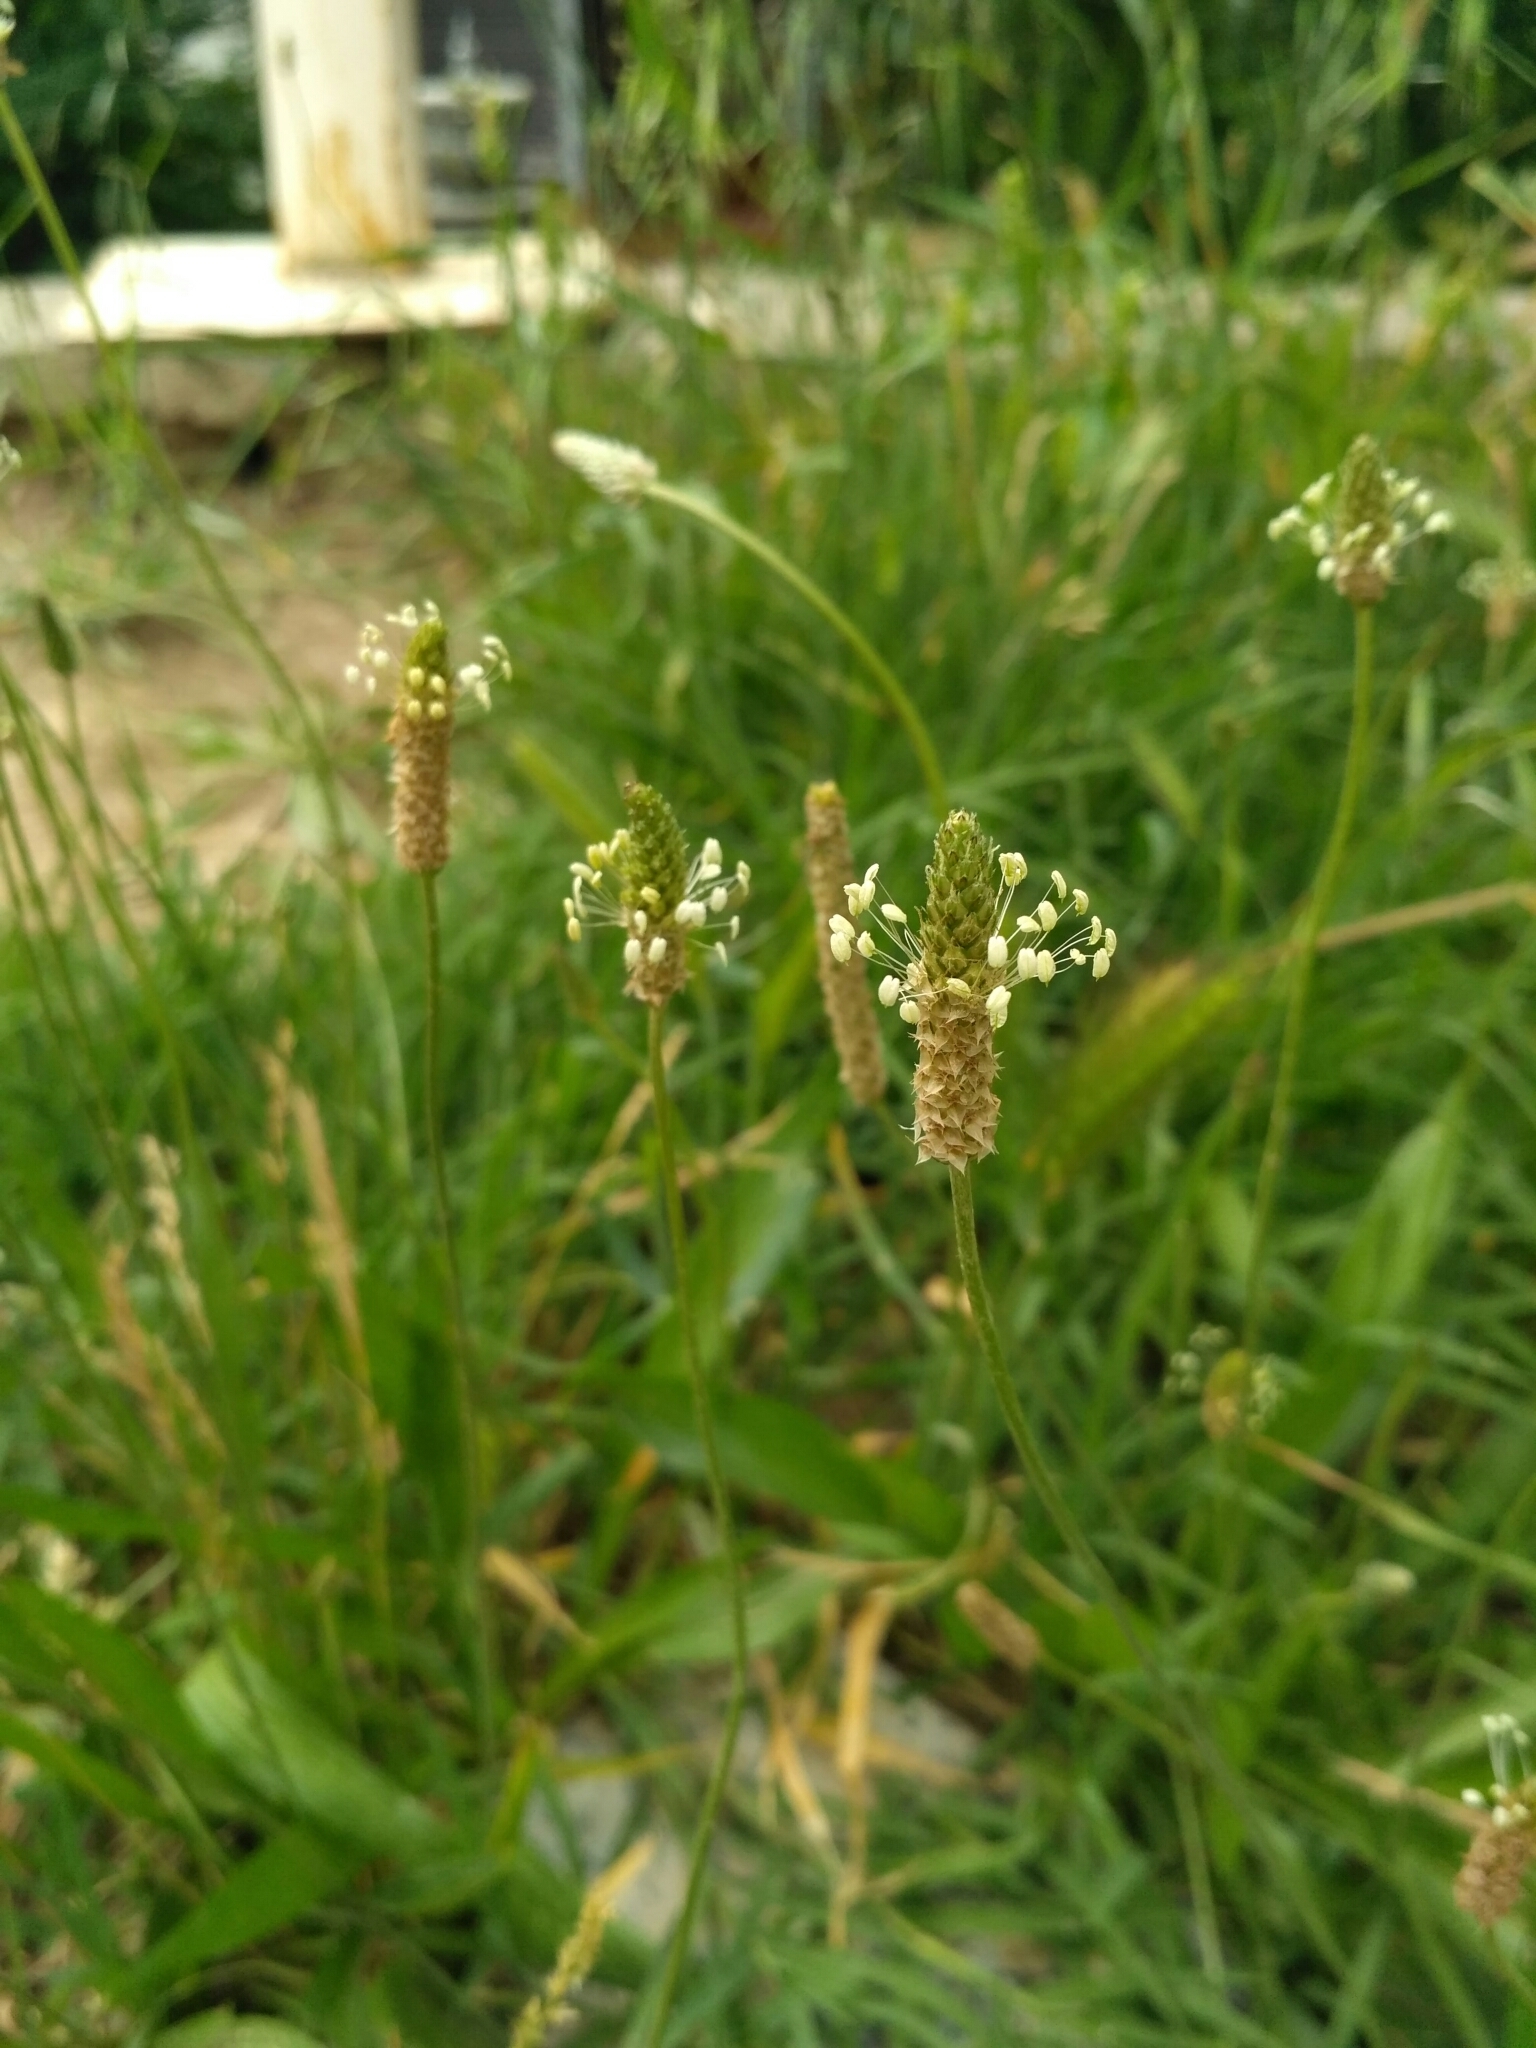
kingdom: Plantae
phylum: Tracheophyta
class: Magnoliopsida
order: Lamiales
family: Plantaginaceae
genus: Plantago
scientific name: Plantago lanceolata
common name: Ribwort plantain
